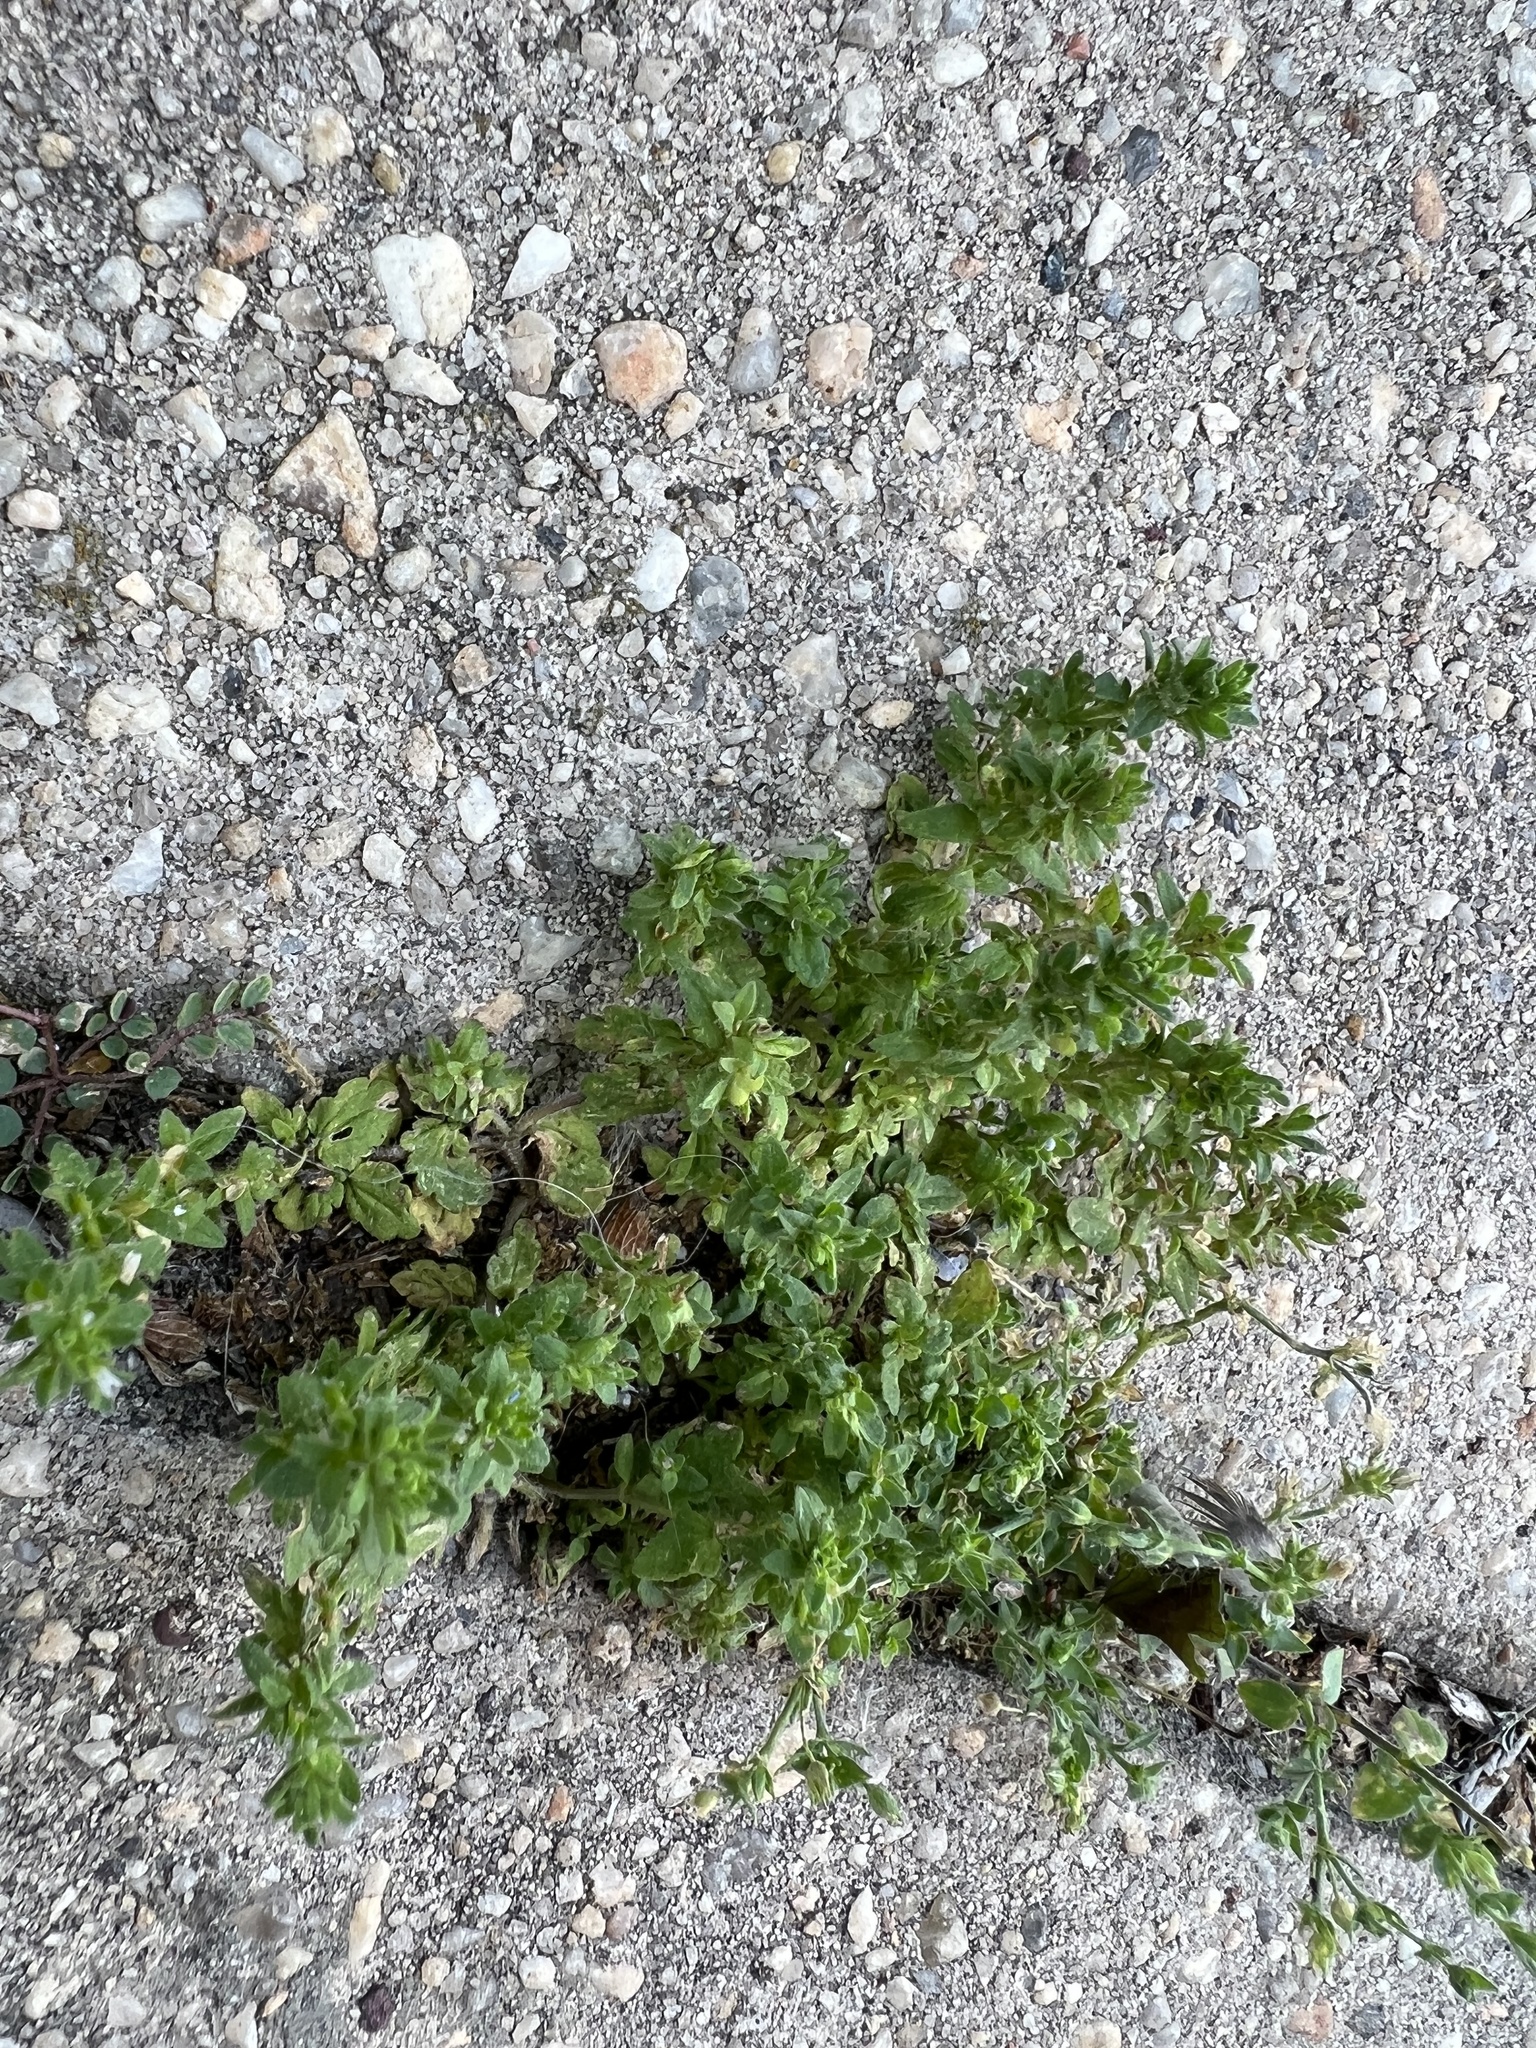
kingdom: Plantae
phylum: Tracheophyta
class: Magnoliopsida
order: Lamiales
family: Plantaginaceae
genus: Veronica
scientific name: Veronica arvensis
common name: Corn speedwell
